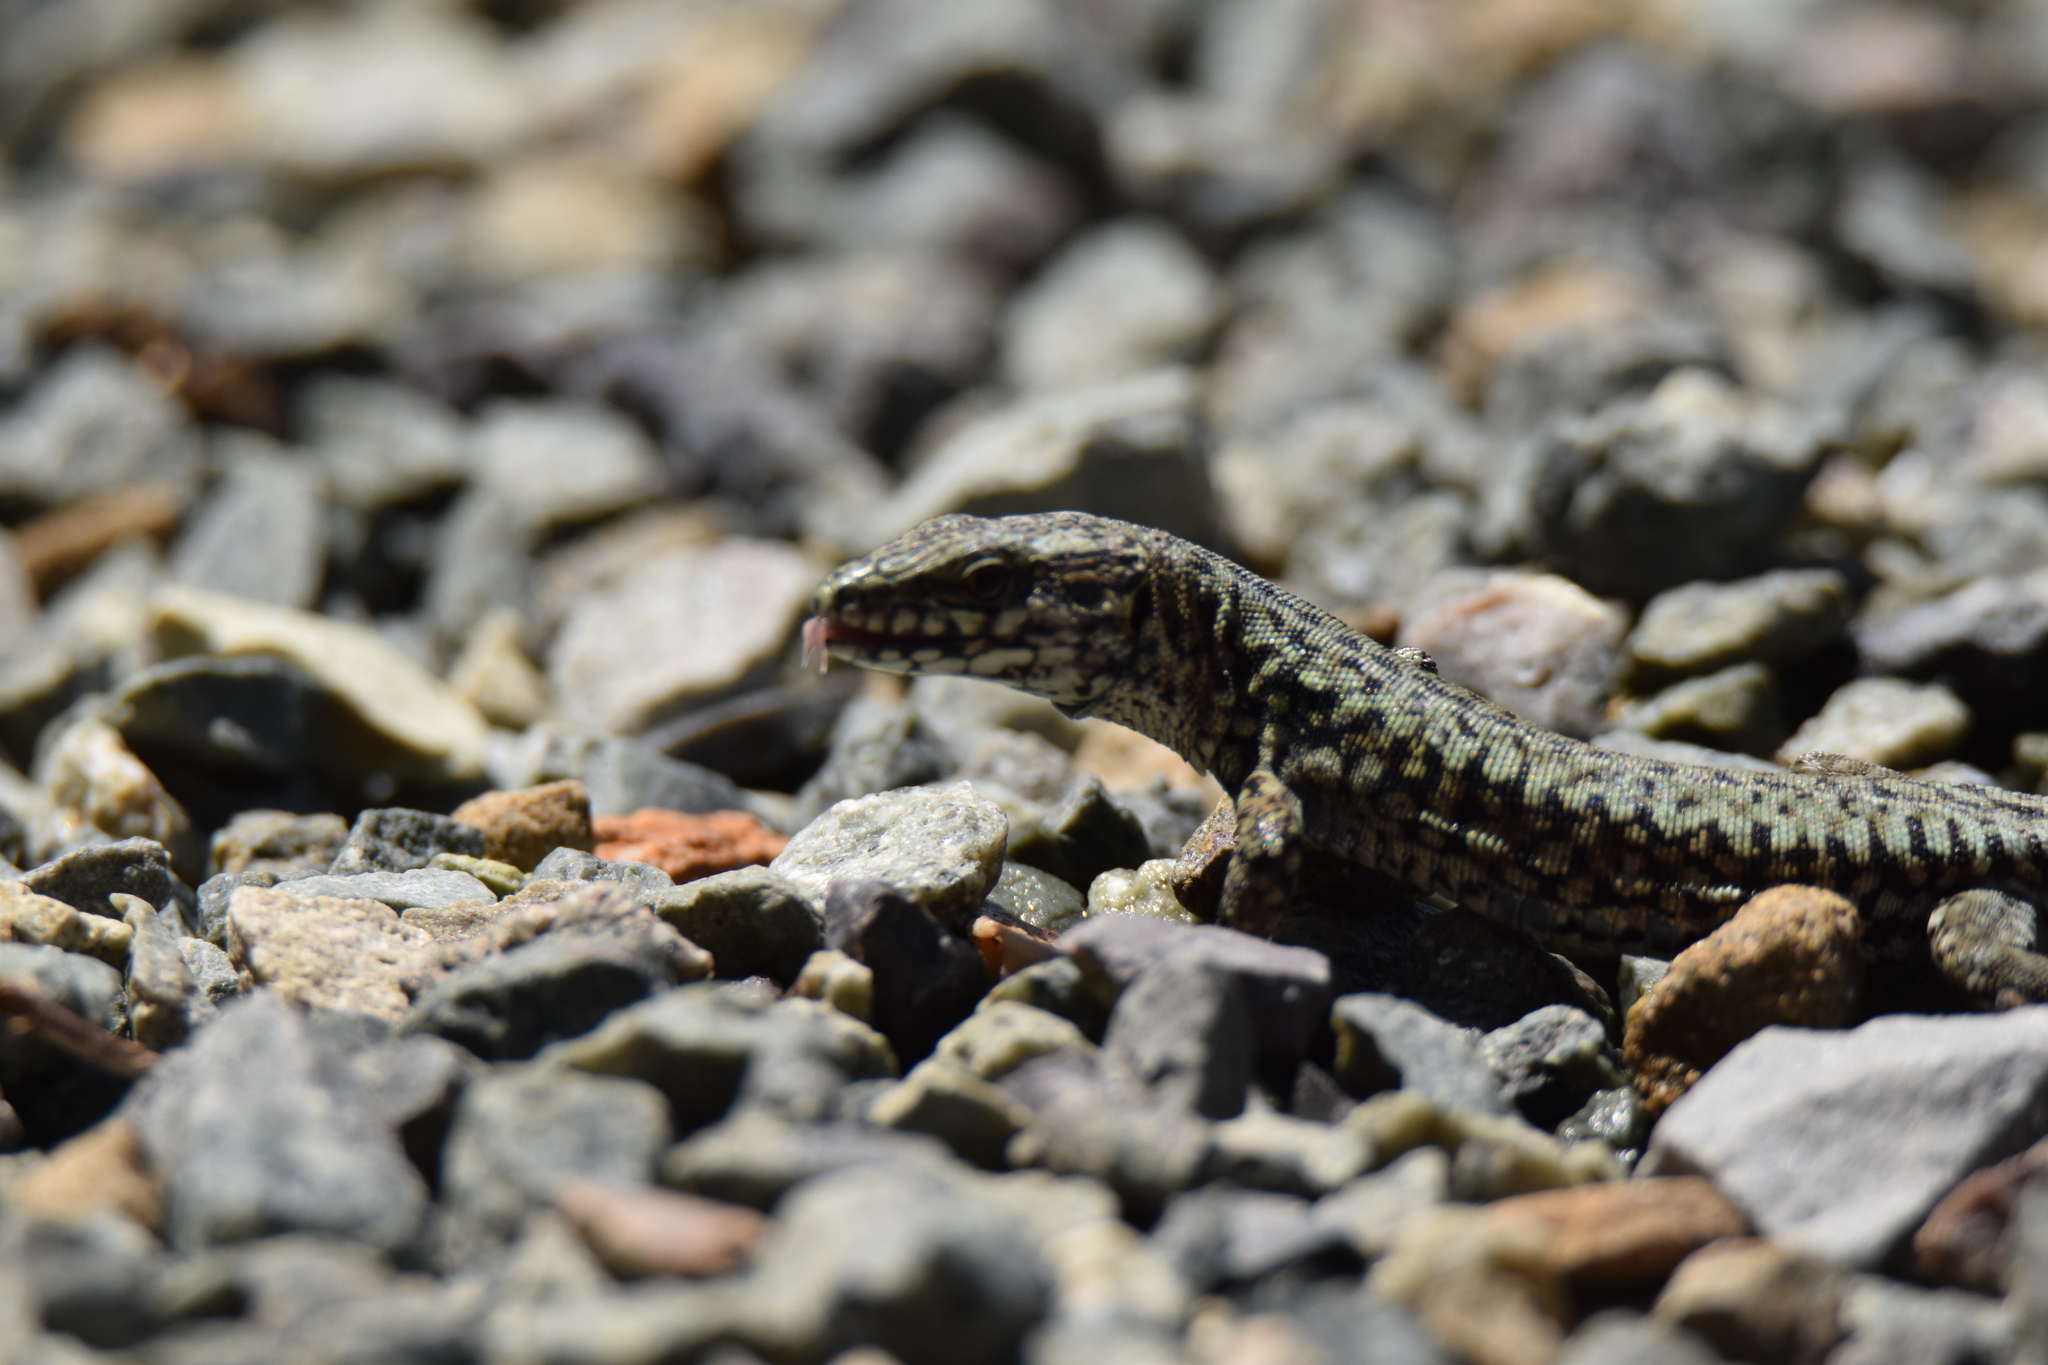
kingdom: Animalia
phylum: Chordata
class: Squamata
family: Lacertidae
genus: Podarcis
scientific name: Podarcis muralis
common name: Common wall lizard
